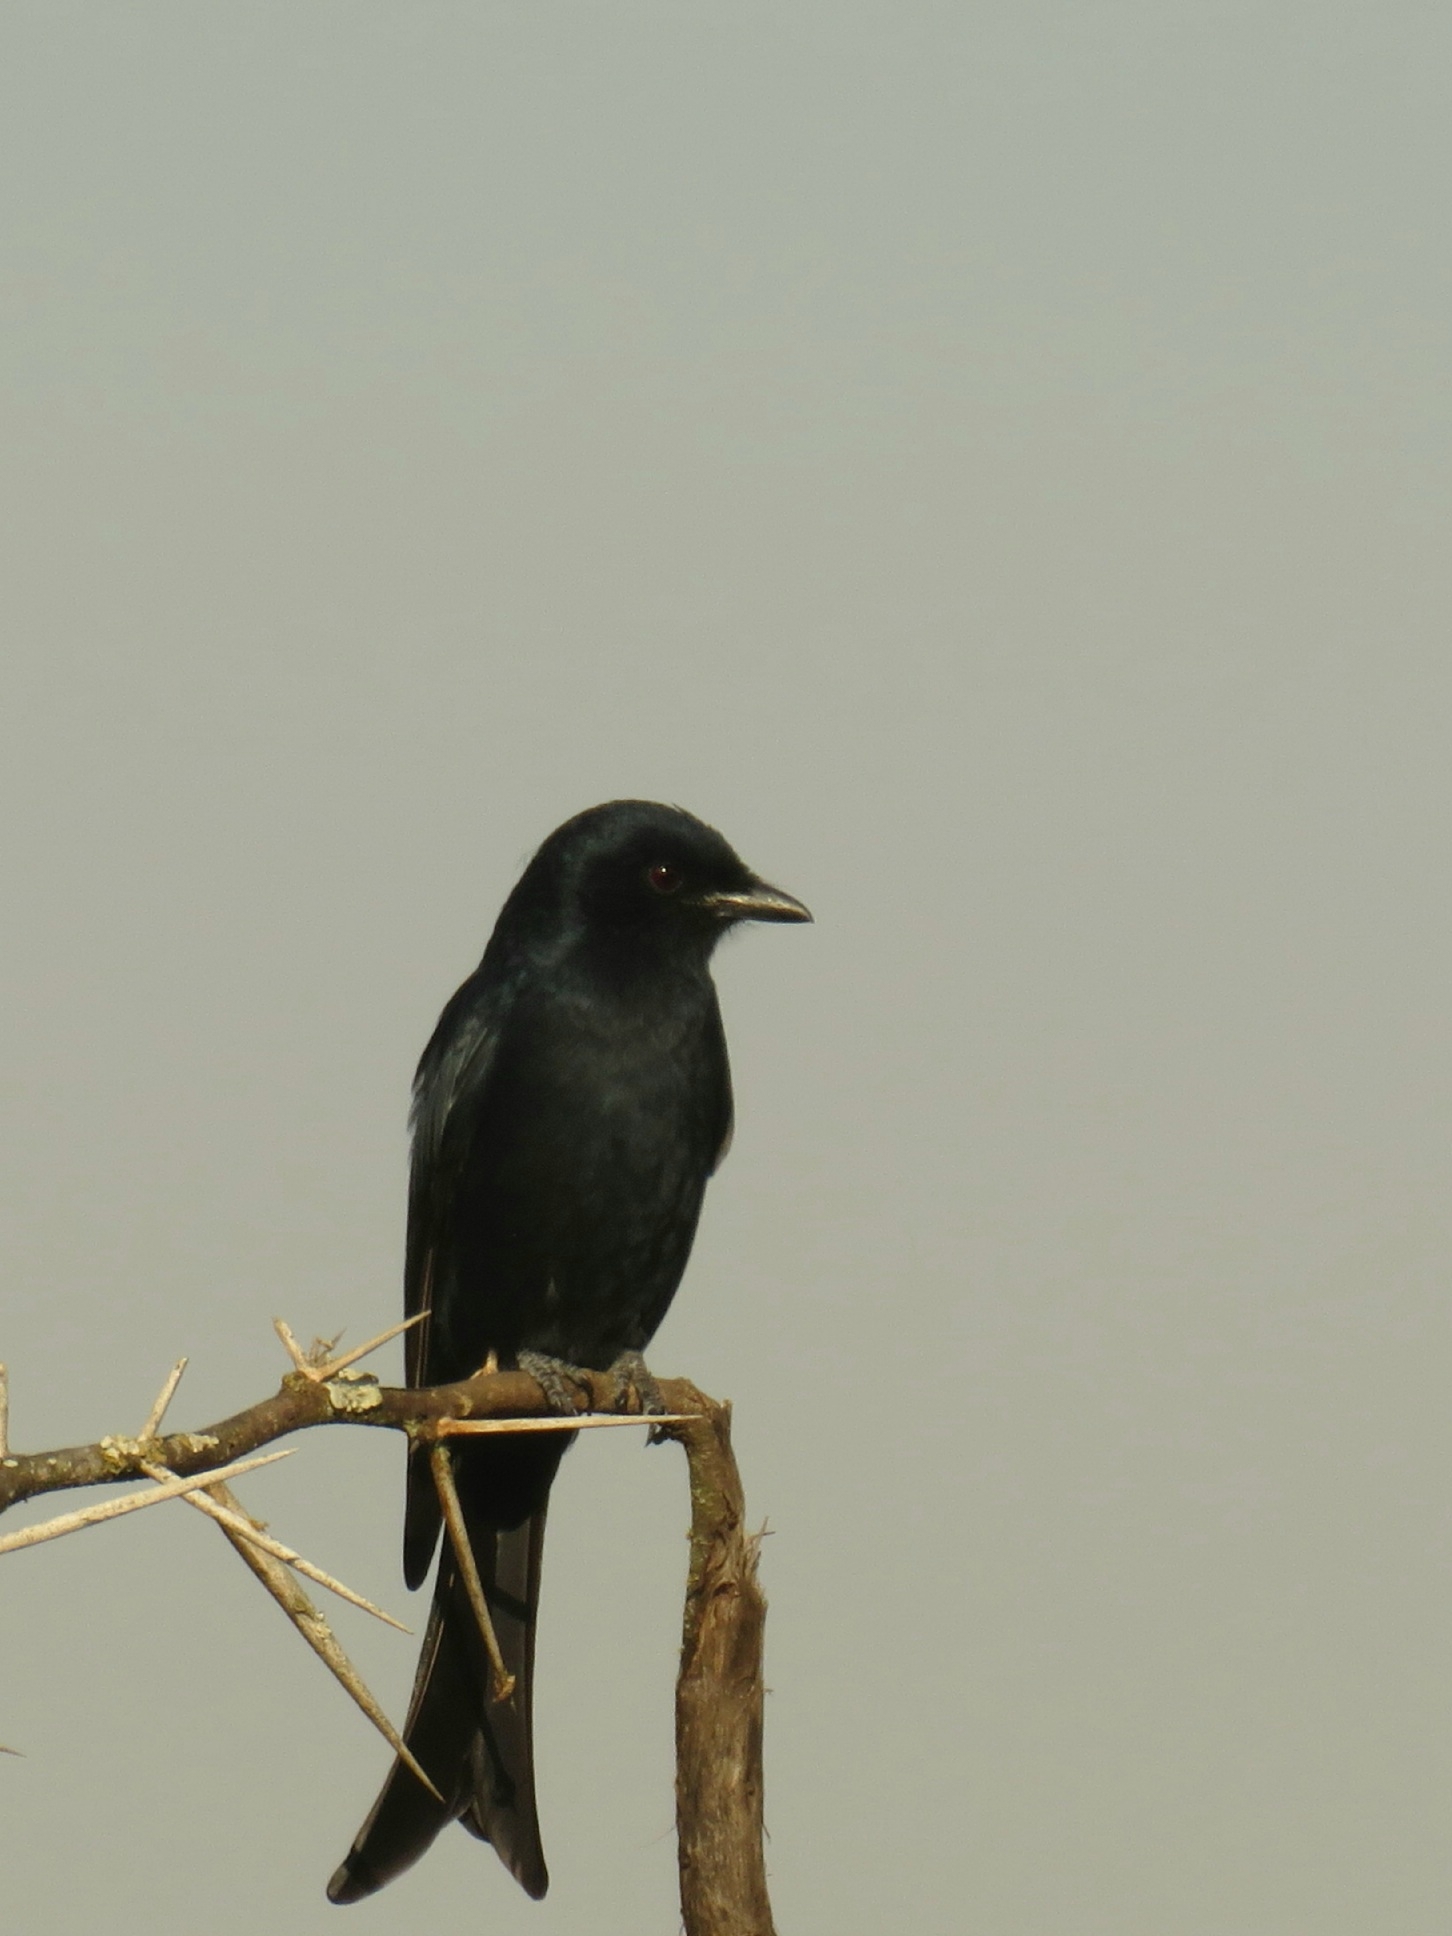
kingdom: Animalia
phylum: Chordata
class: Aves
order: Passeriformes
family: Dicruridae
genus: Dicrurus
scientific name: Dicrurus adsimilis
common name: Fork-tailed drongo
